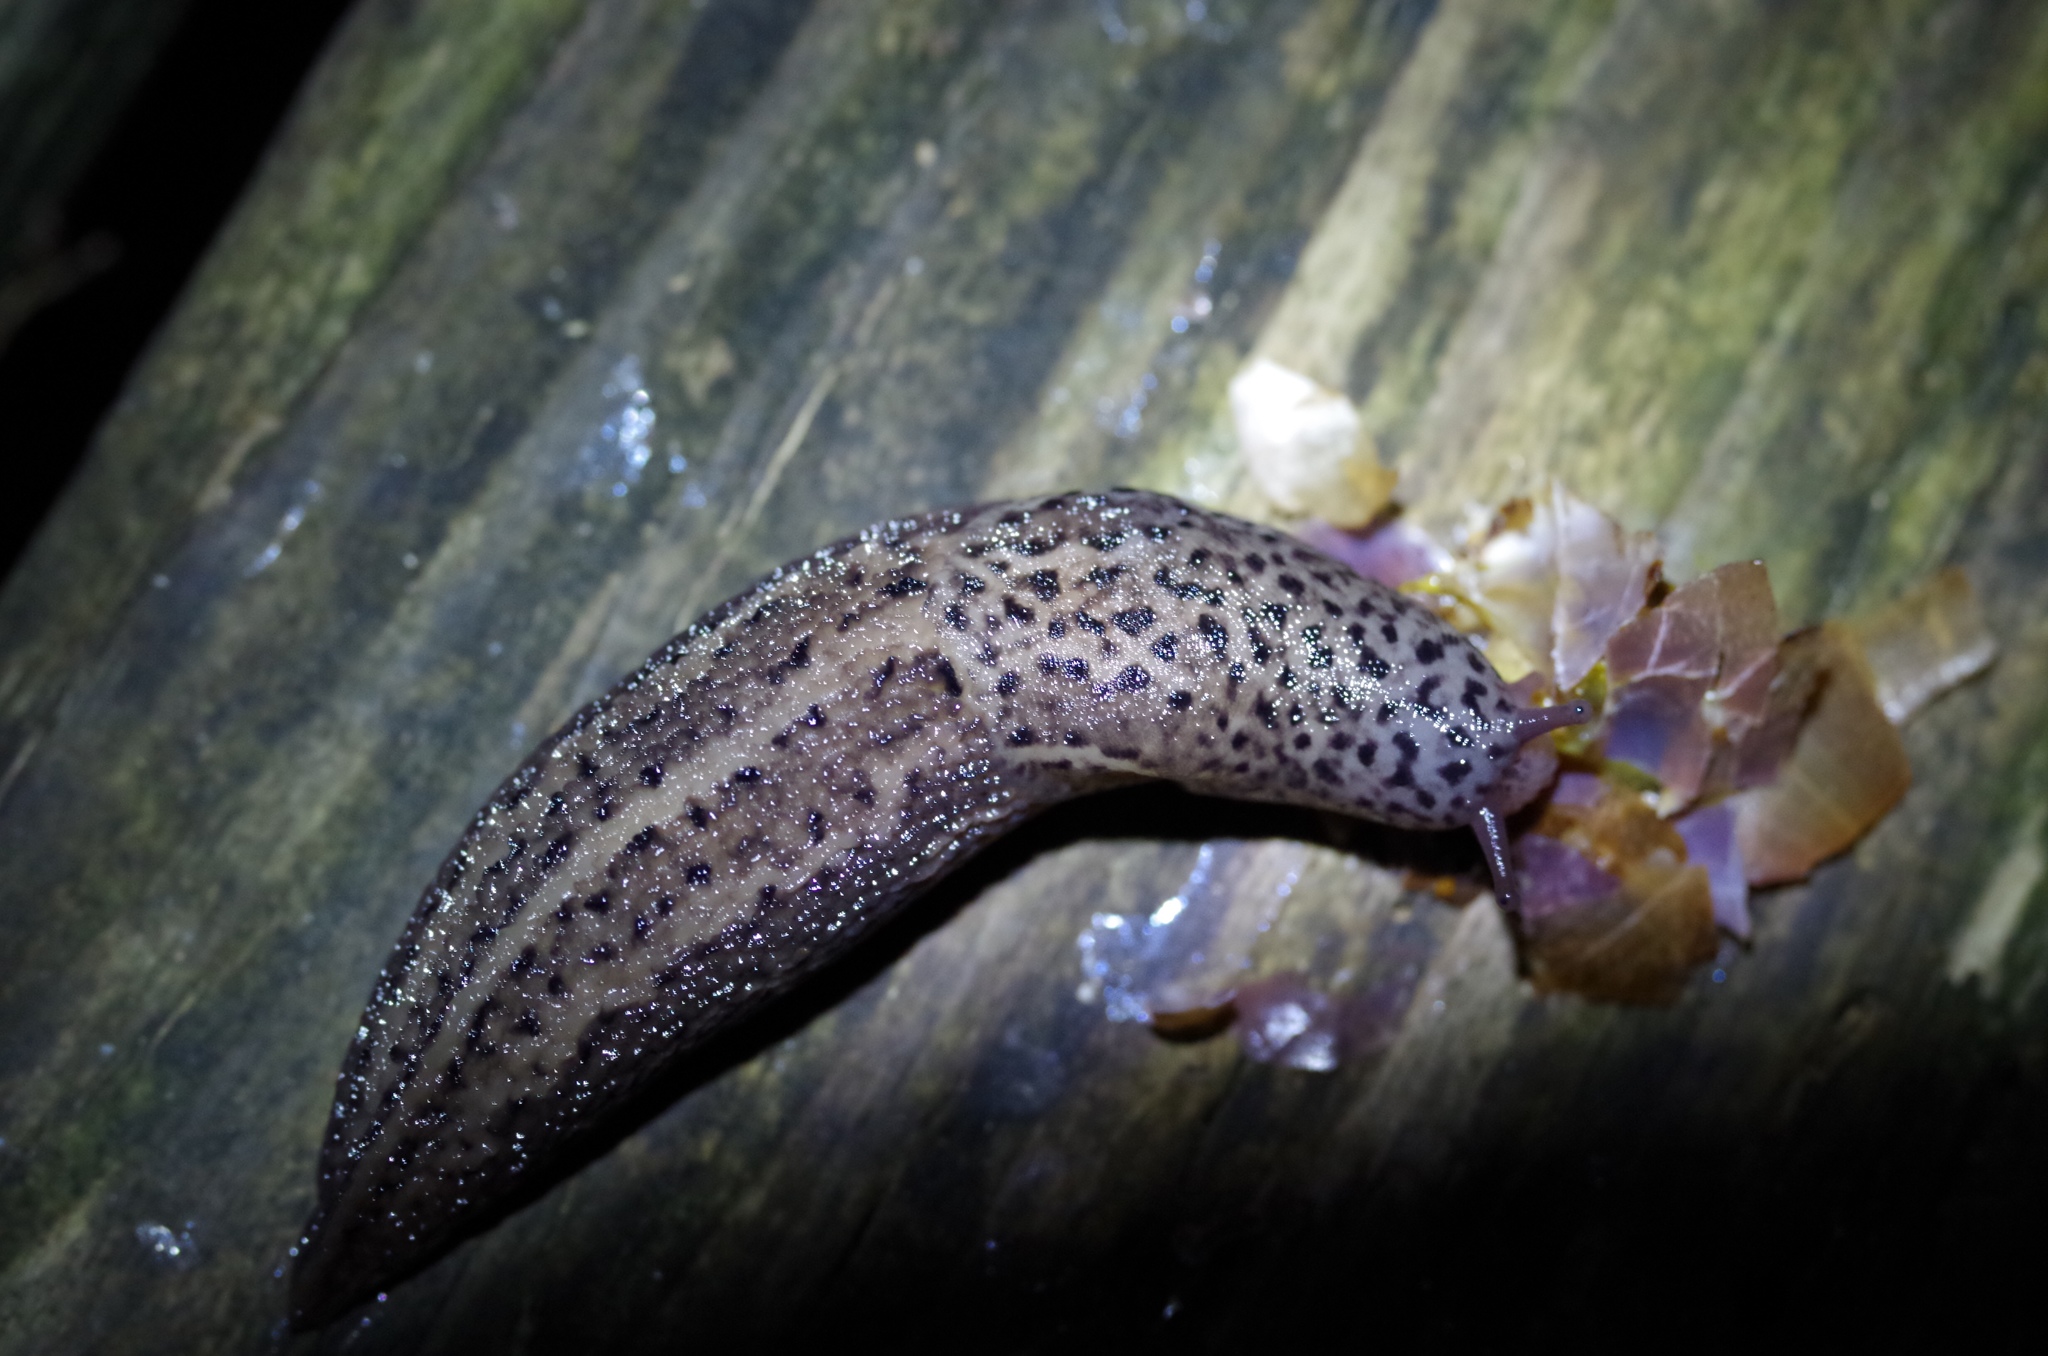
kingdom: Animalia
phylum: Mollusca
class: Gastropoda
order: Stylommatophora
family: Limacidae
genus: Limax
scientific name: Limax maximus
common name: Great grey slug
